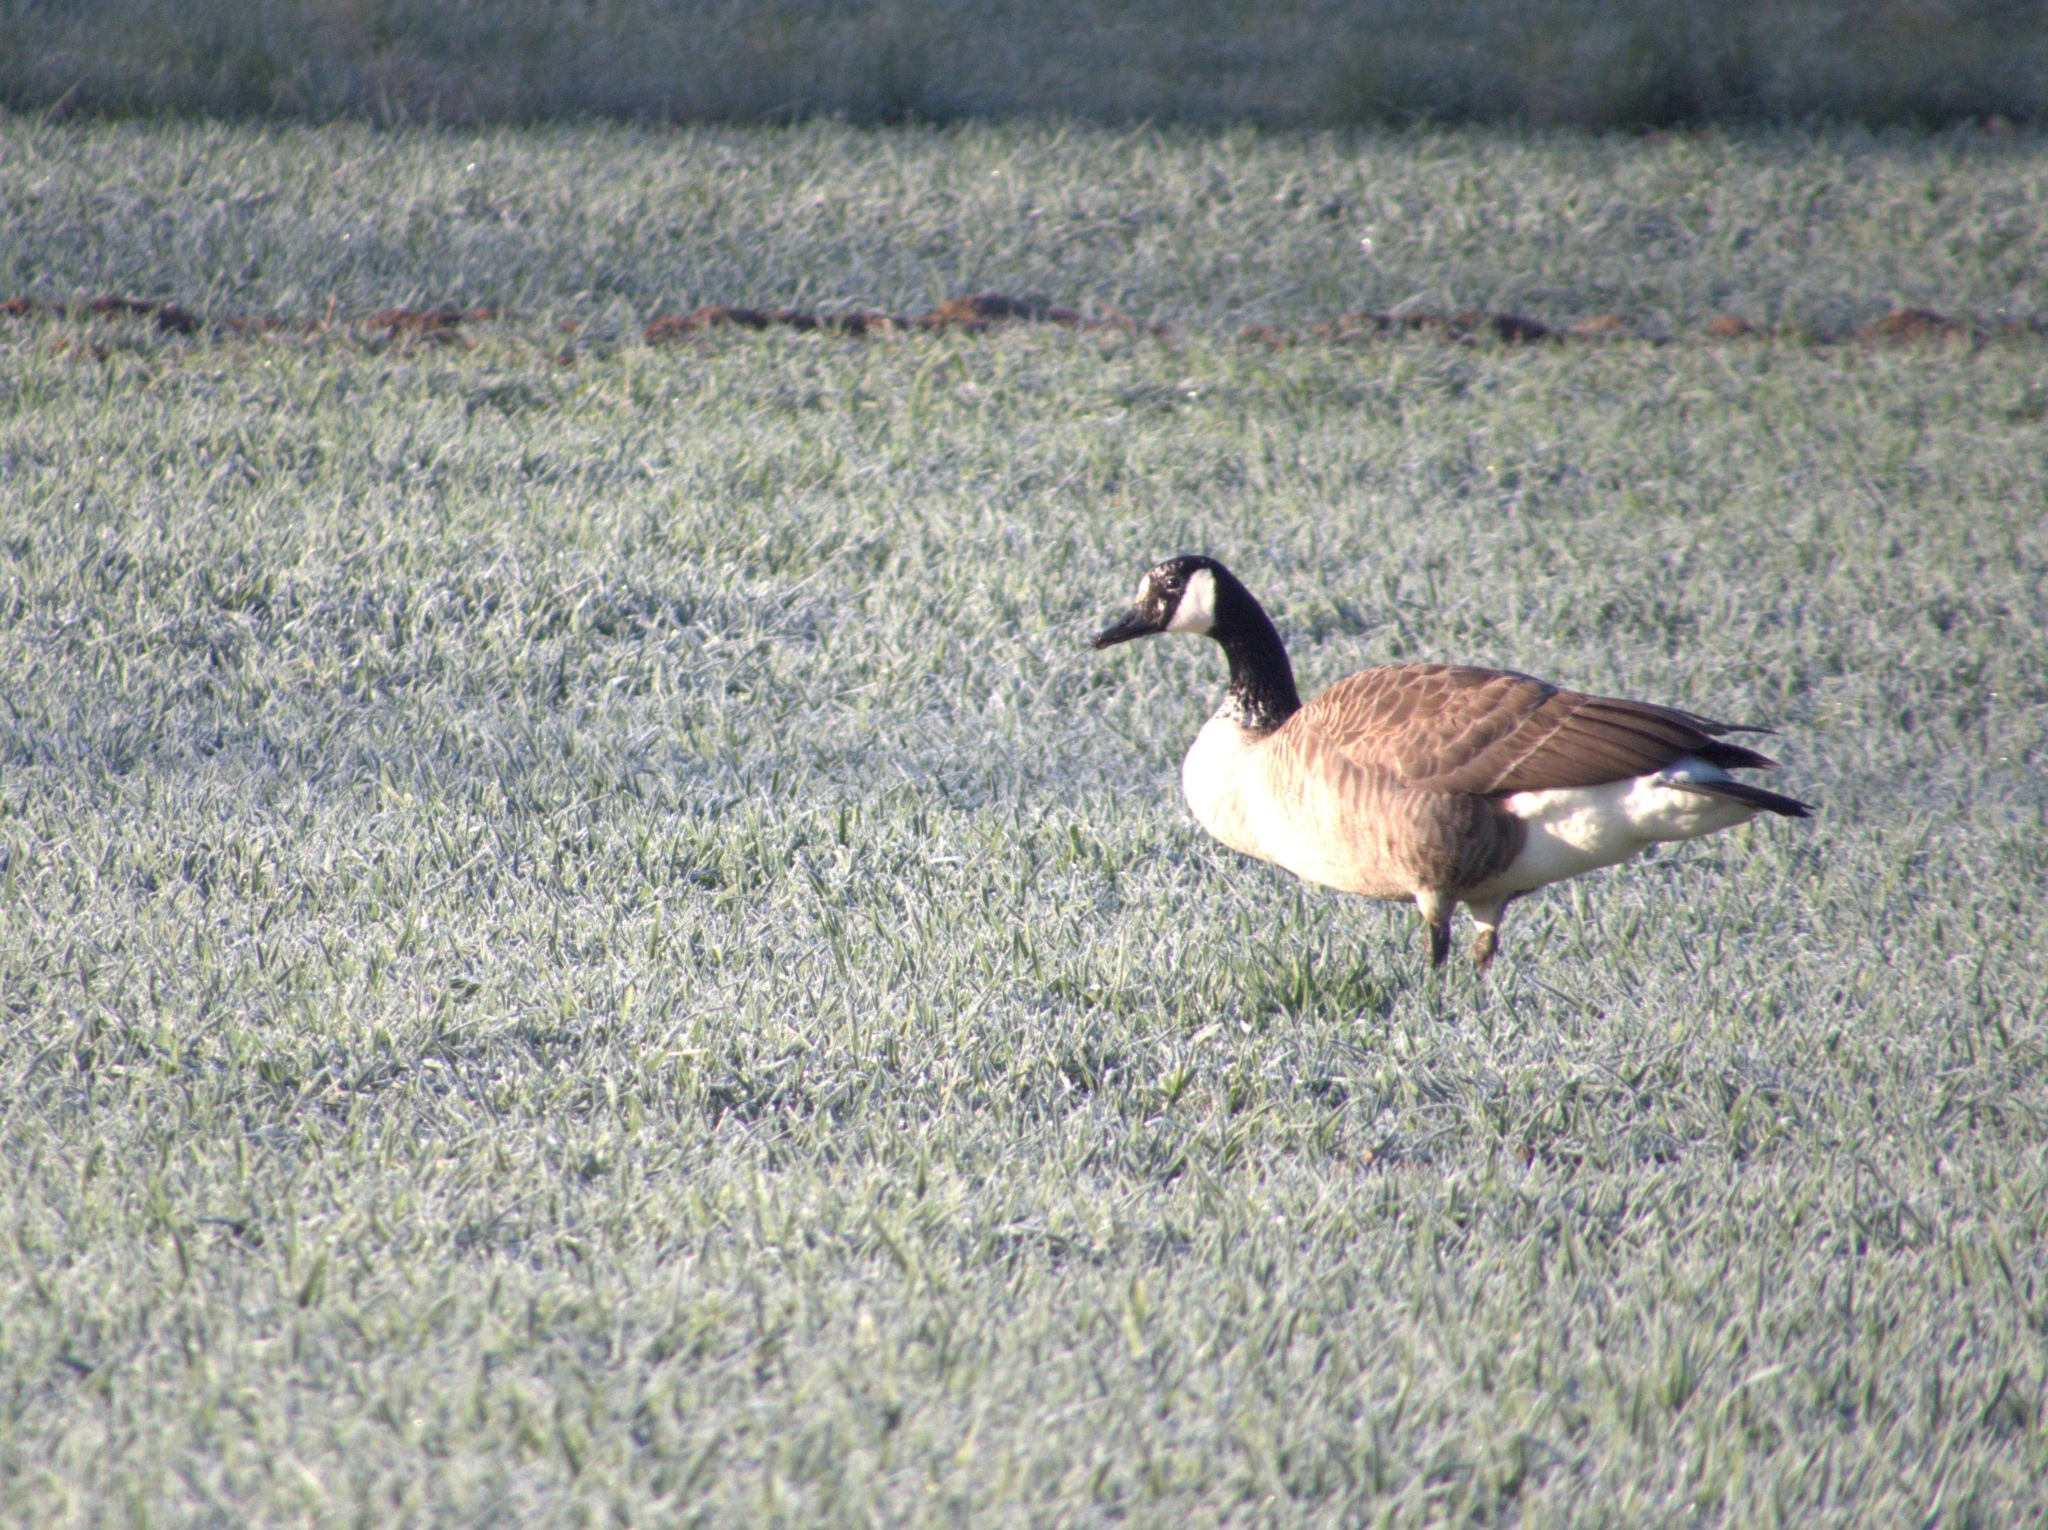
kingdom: Animalia
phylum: Chordata
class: Aves
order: Anseriformes
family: Anatidae
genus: Branta
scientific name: Branta canadensis
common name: Canada goose
